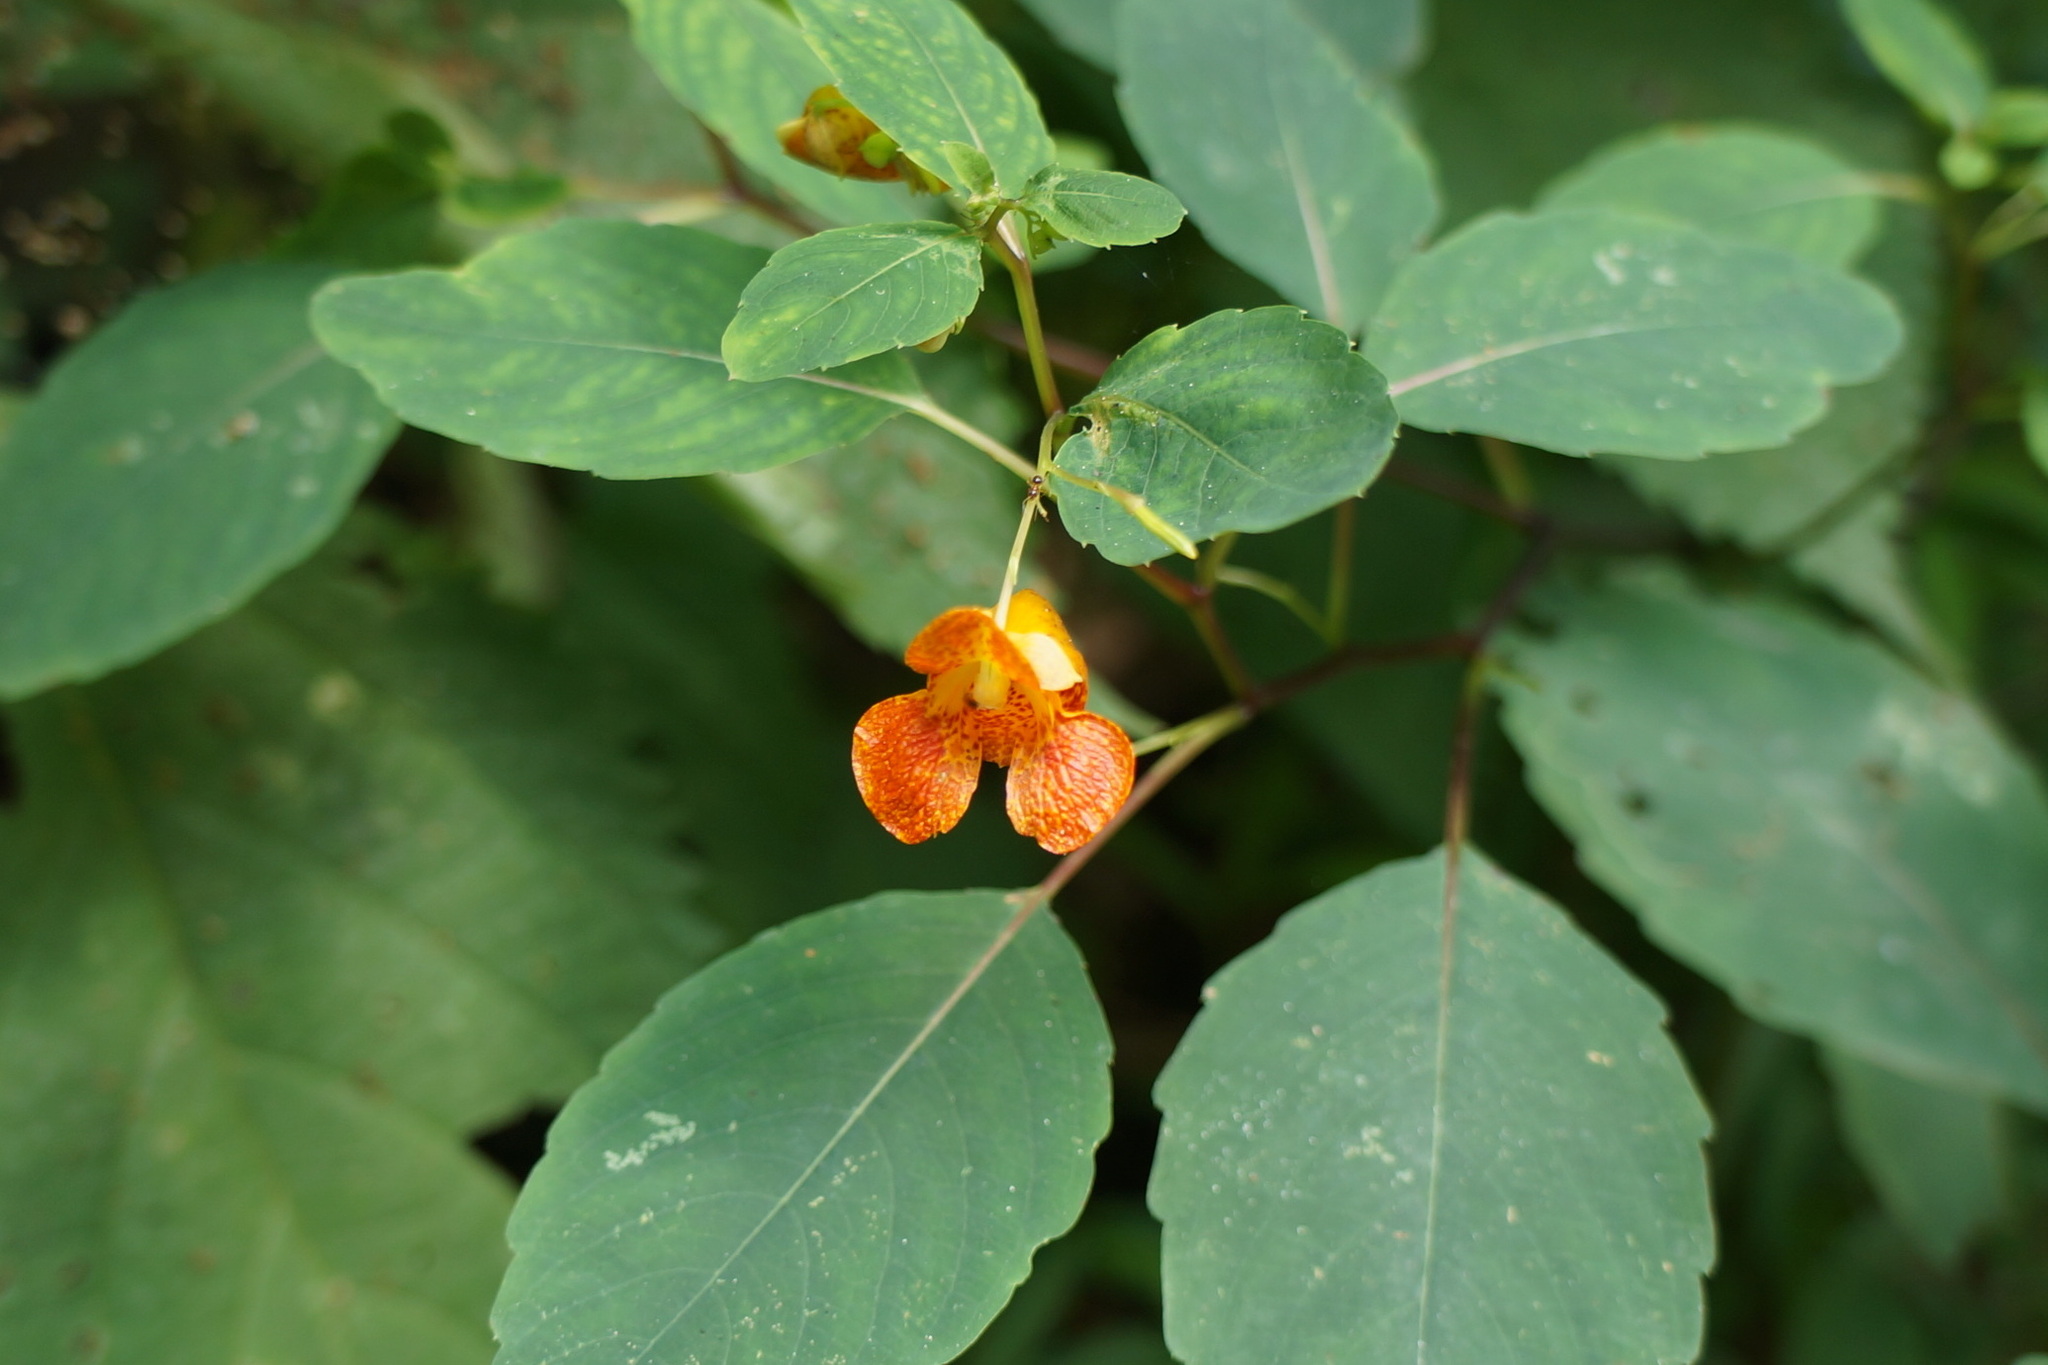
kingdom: Plantae
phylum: Tracheophyta
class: Magnoliopsida
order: Ericales
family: Balsaminaceae
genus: Impatiens
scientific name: Impatiens capensis
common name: Orange balsam
